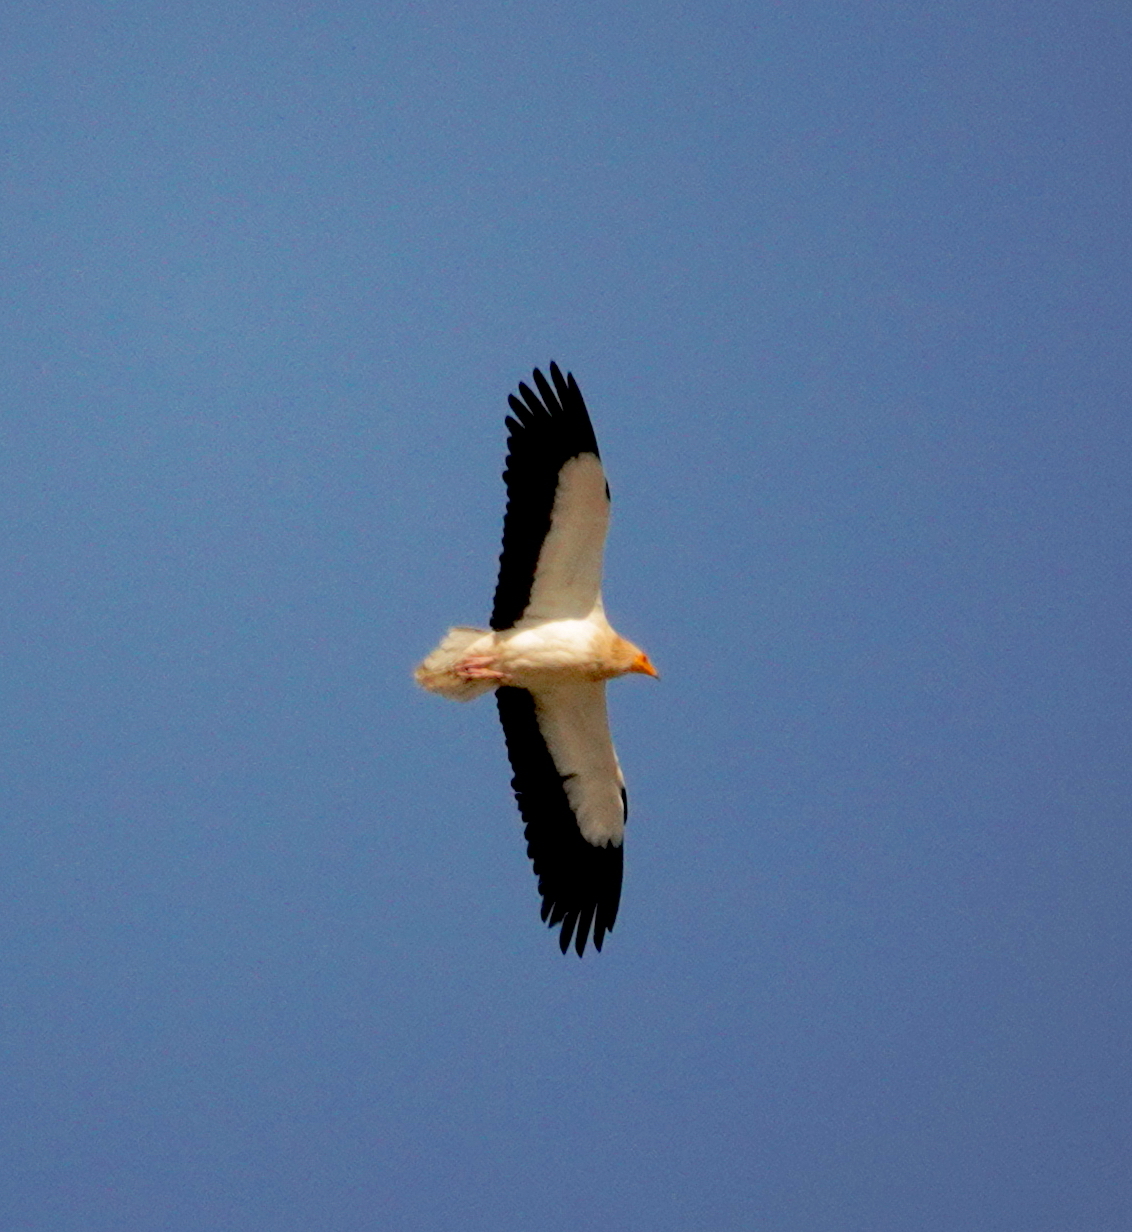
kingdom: Animalia
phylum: Chordata
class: Aves
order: Accipitriformes
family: Accipitridae
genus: Neophron
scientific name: Neophron percnopterus
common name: Egyptian vulture
